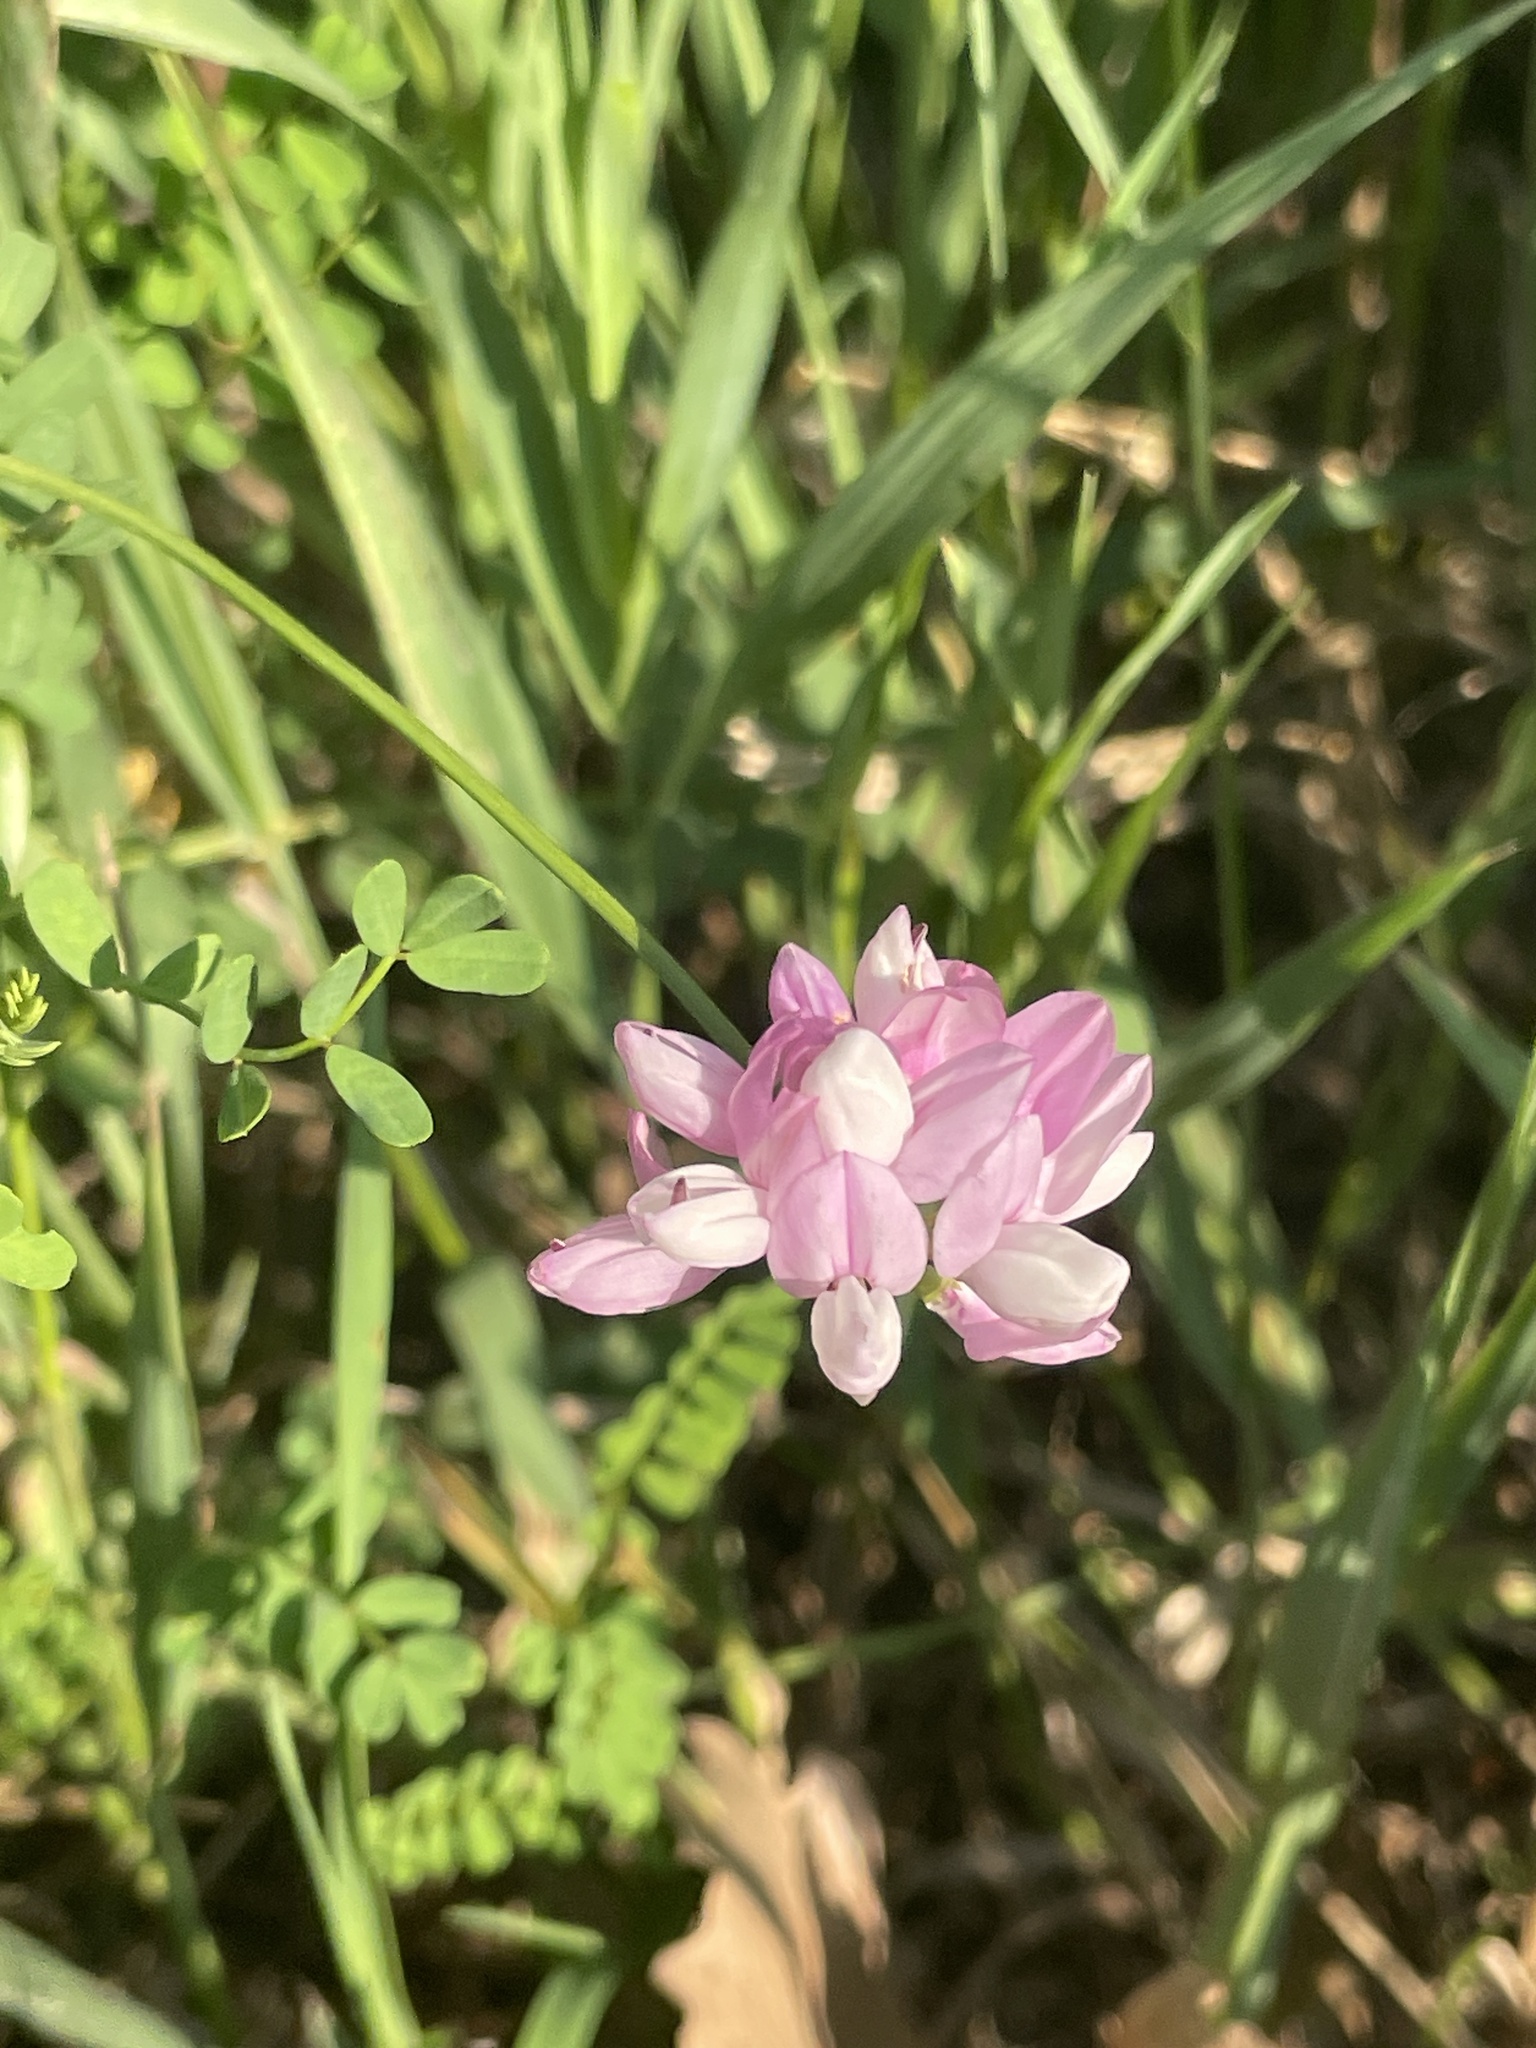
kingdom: Plantae
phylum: Tracheophyta
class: Magnoliopsida
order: Fabales
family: Fabaceae
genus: Coronilla
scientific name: Coronilla varia
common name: Crownvetch
